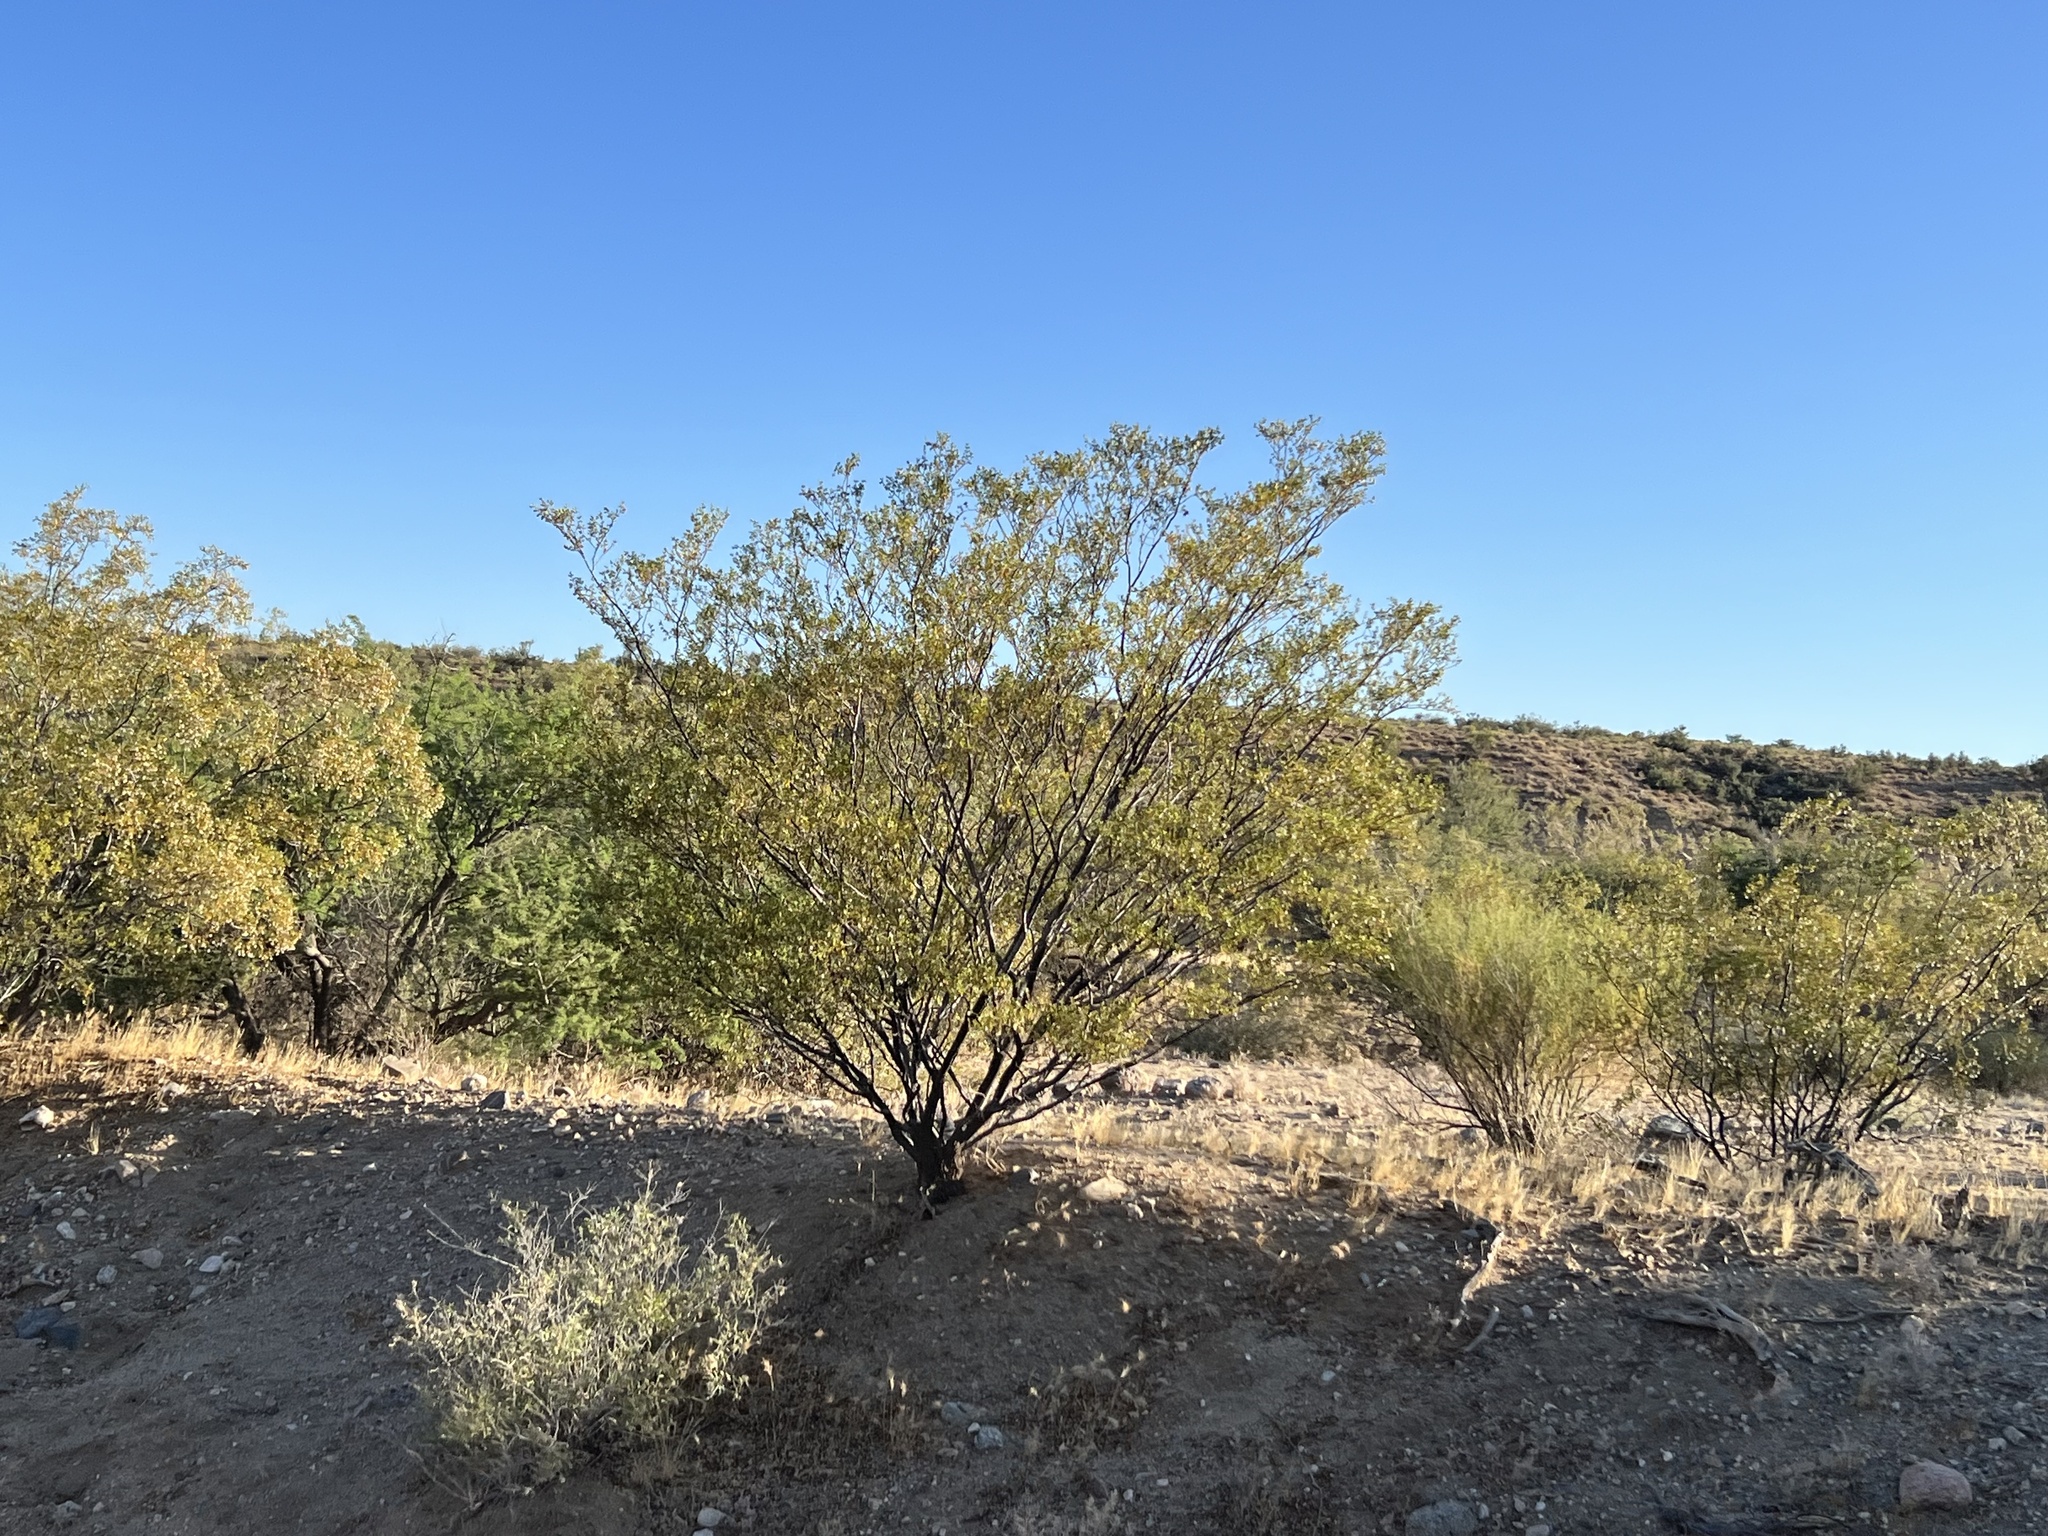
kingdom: Plantae
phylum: Tracheophyta
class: Magnoliopsida
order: Zygophyllales
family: Zygophyllaceae
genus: Larrea
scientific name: Larrea tridentata
